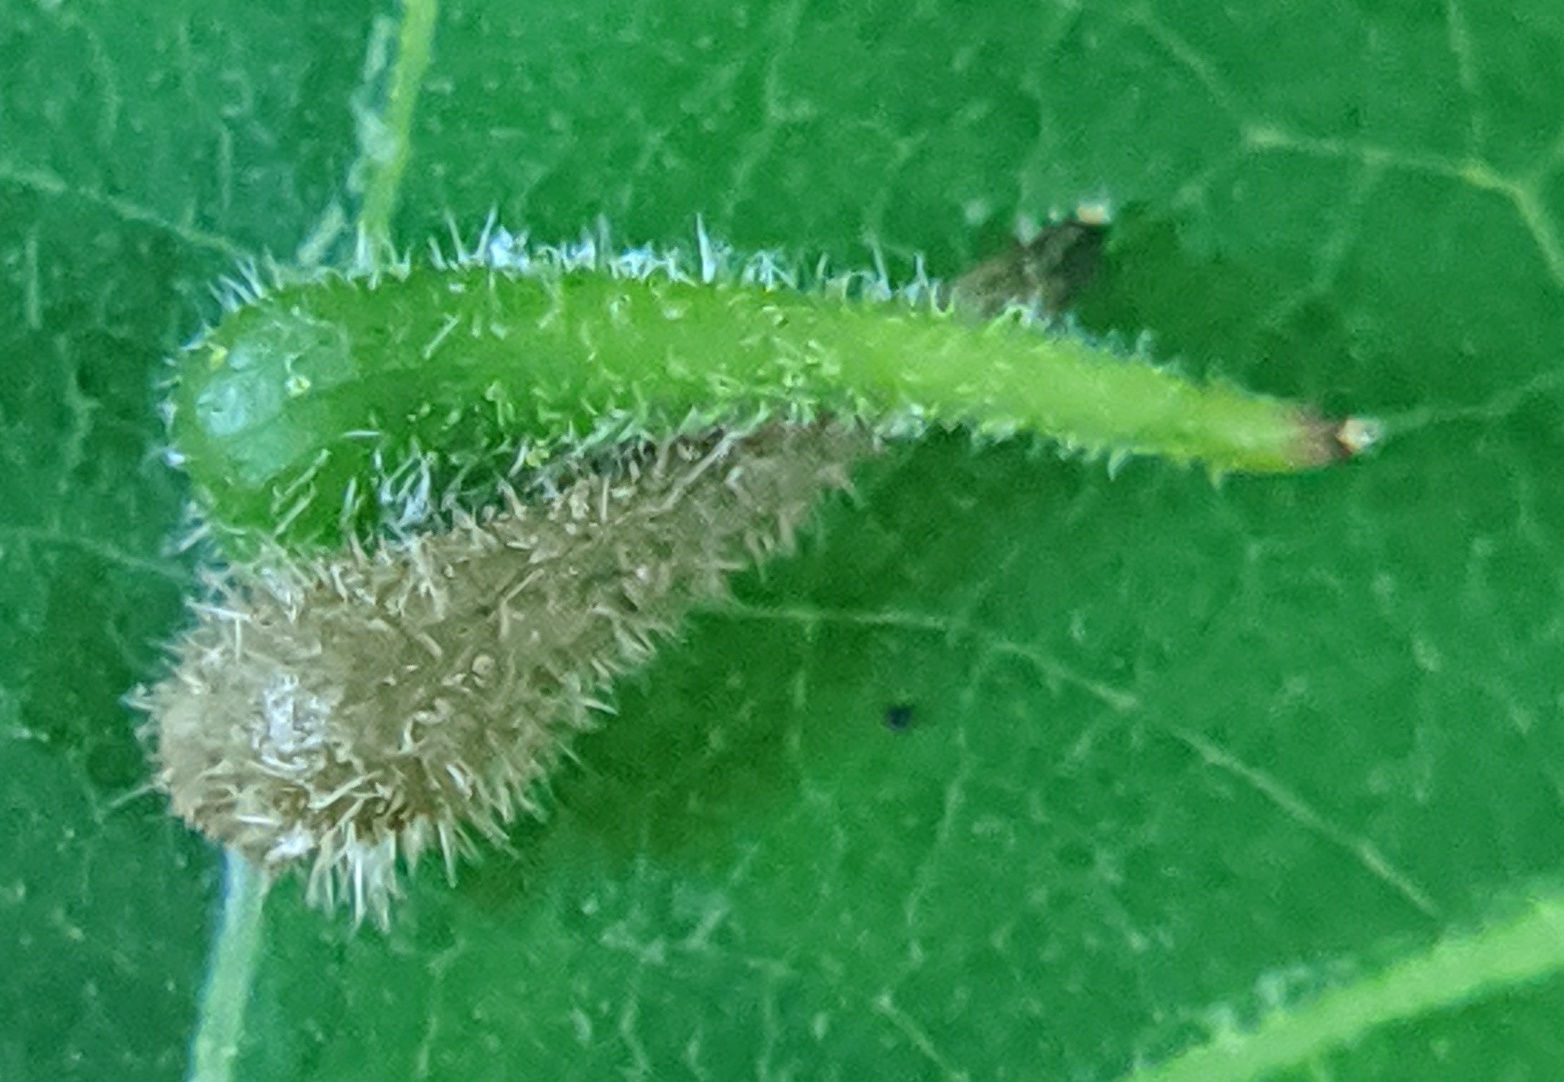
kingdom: Animalia
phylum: Arthropoda
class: Insecta
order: Diptera
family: Cecidomyiidae
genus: Caryomyia
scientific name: Caryomyia spinulosa
